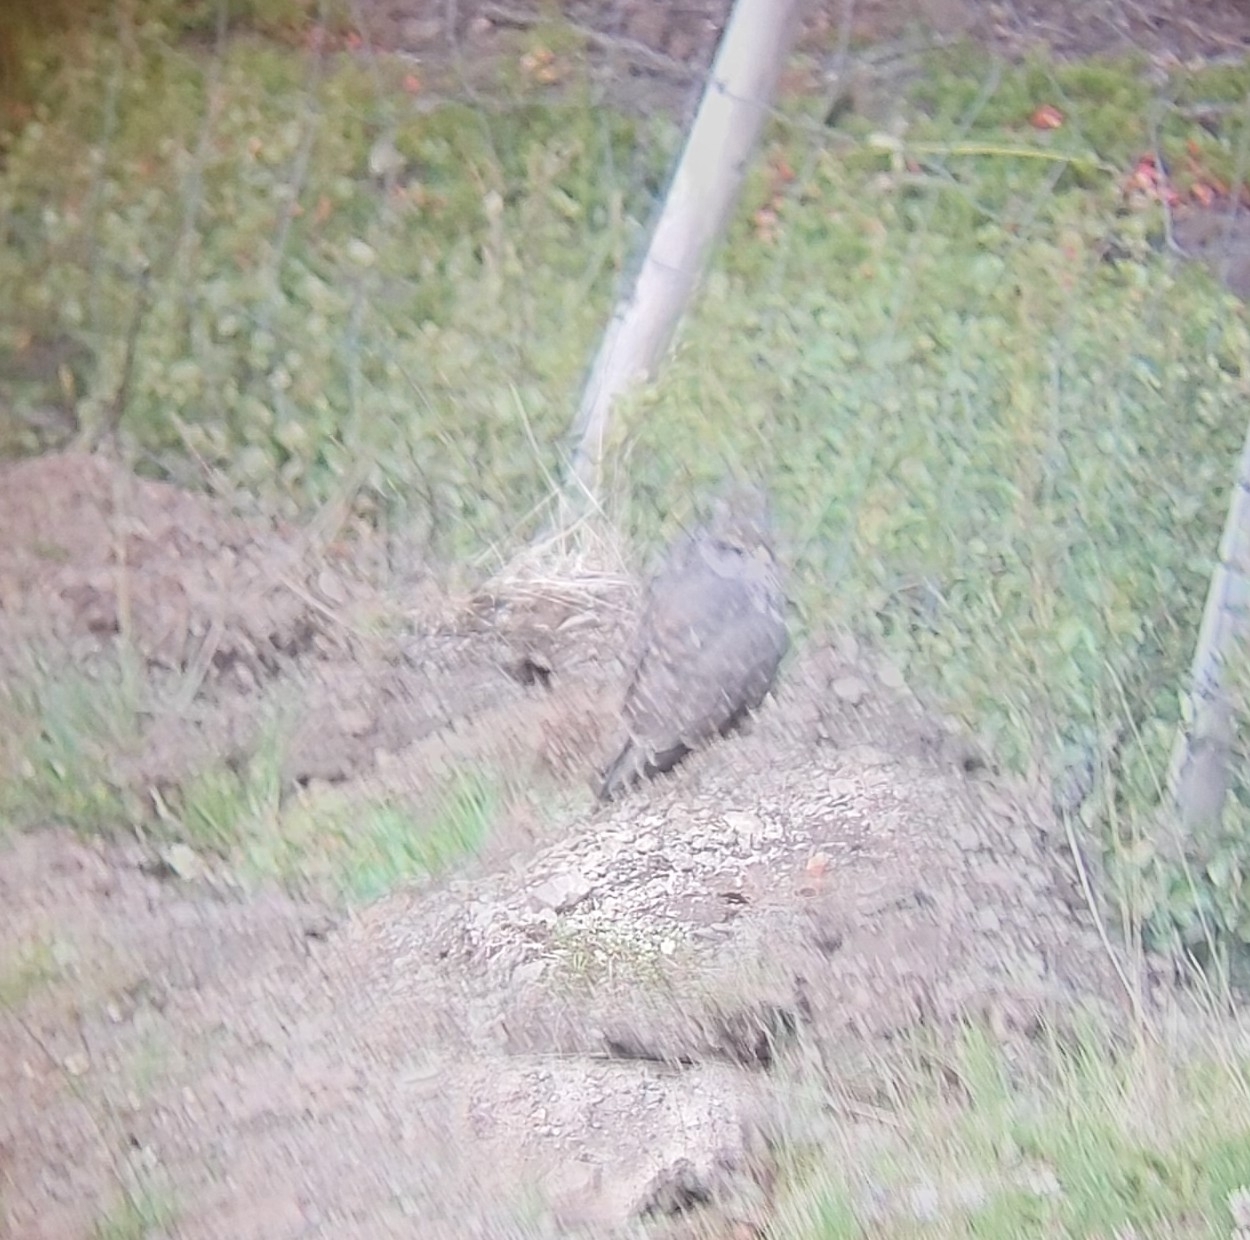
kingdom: Animalia
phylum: Chordata
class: Aves
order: Falconiformes
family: Falconidae
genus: Falco
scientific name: Falco rusticolus
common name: Gyrfalcon
